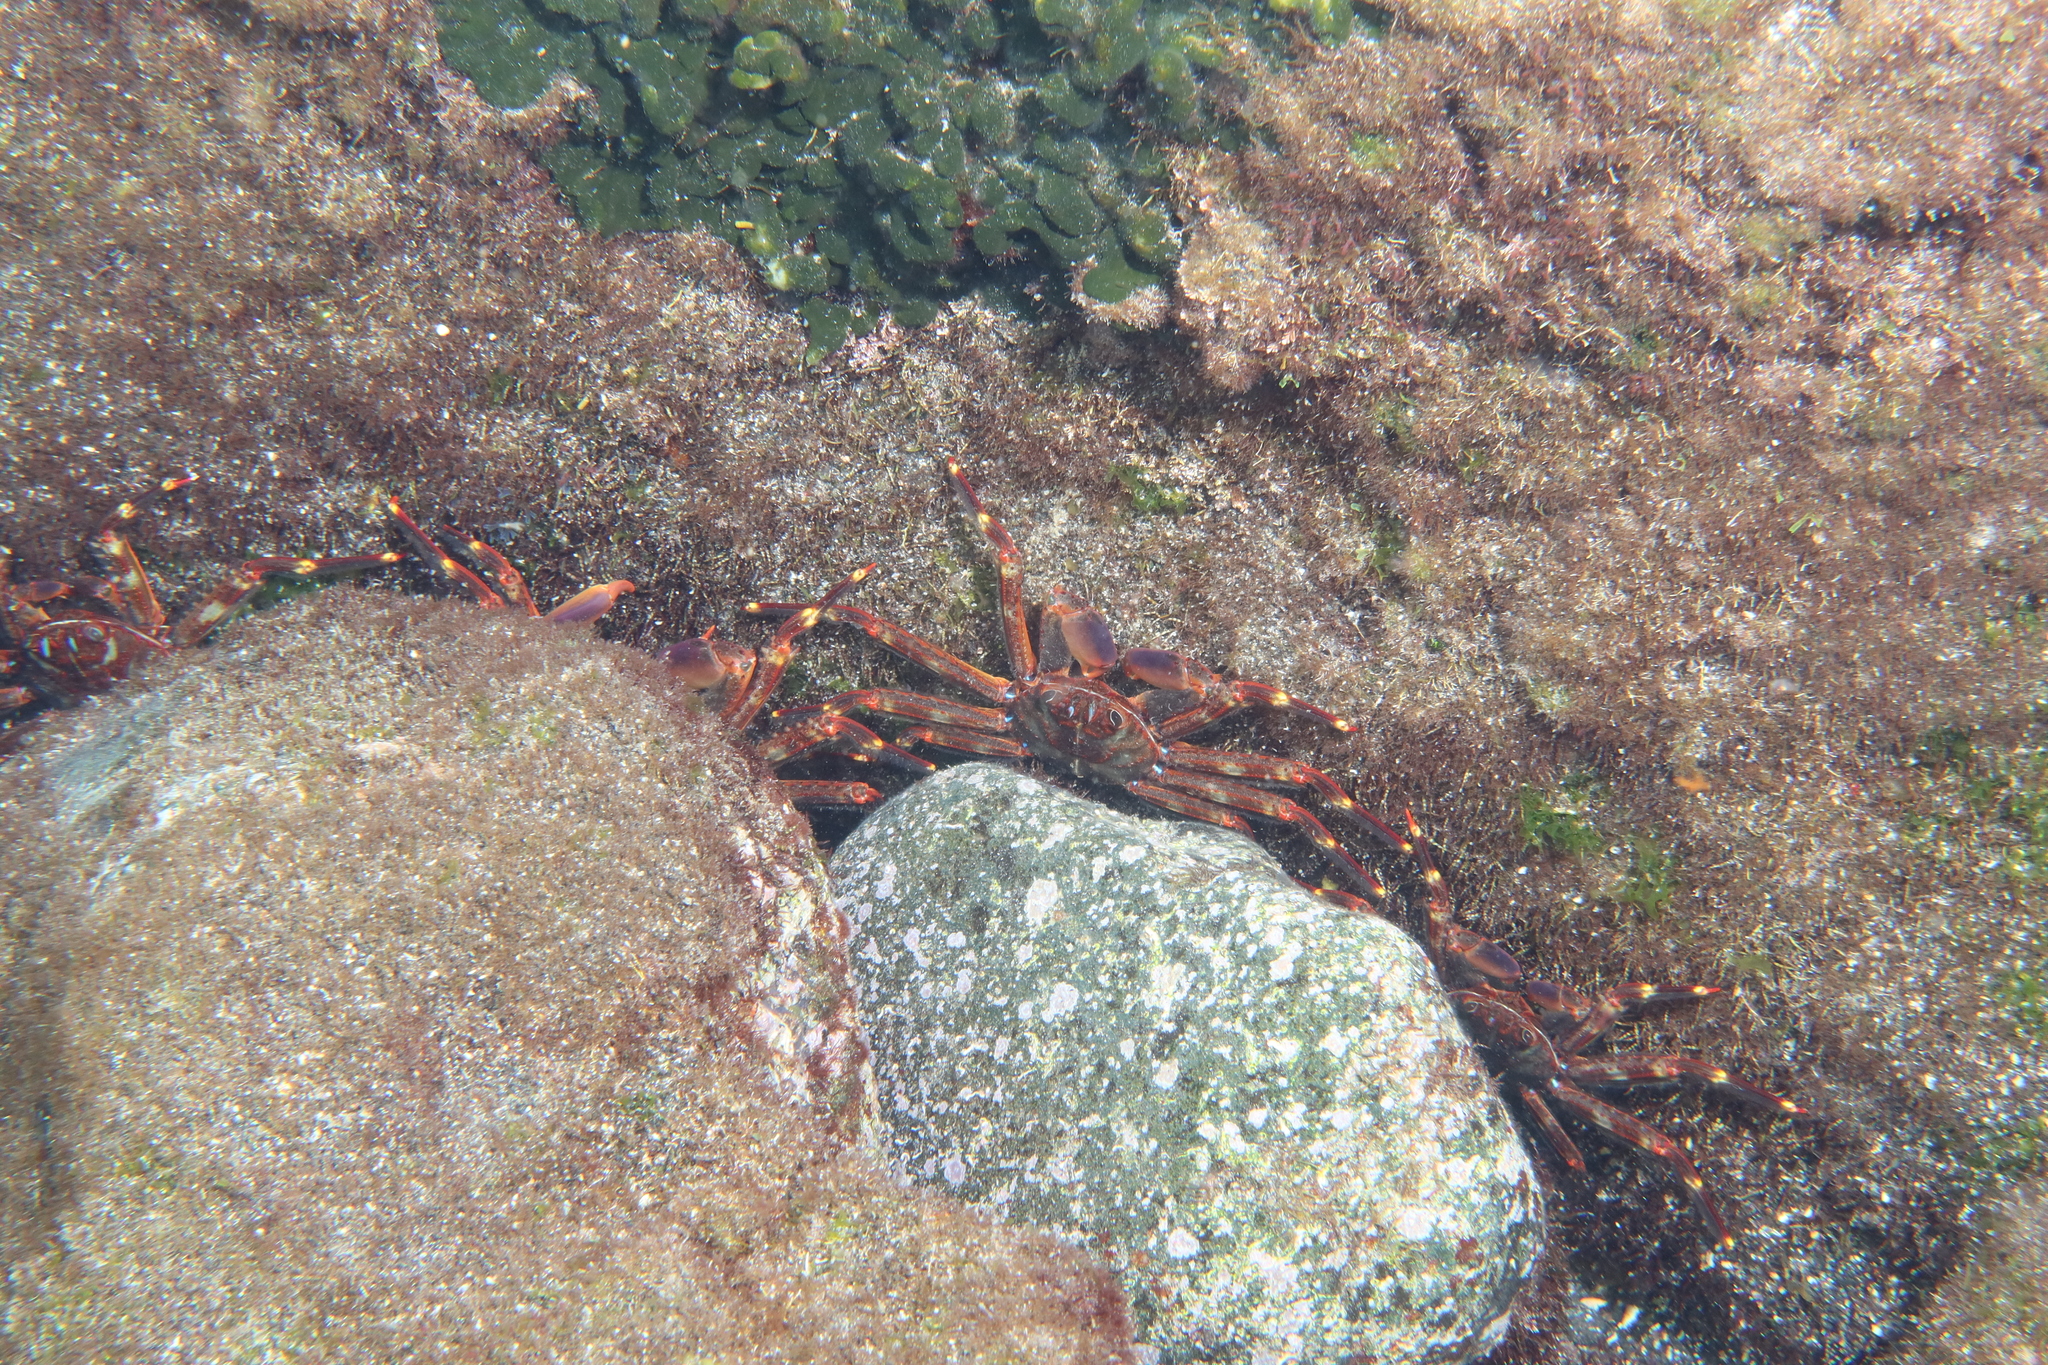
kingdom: Animalia
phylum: Arthropoda
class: Malacostraca
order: Decapoda
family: Percnidae
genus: Percnon
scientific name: Percnon gibbesi
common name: Nimble spray crab
